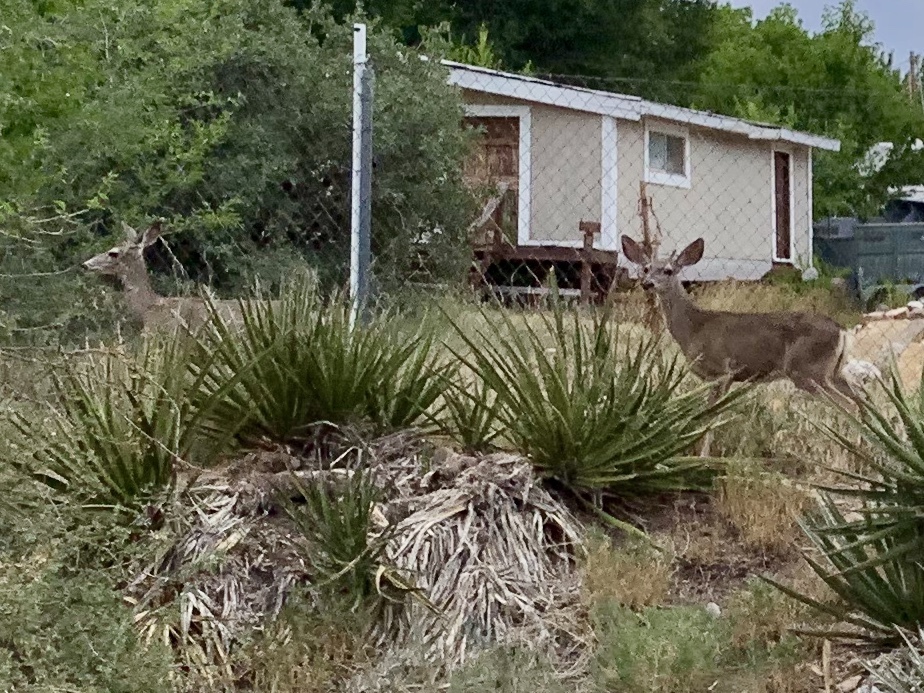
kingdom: Animalia
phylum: Chordata
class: Mammalia
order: Artiodactyla
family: Cervidae
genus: Odocoileus
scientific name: Odocoileus hemionus
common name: Mule deer
